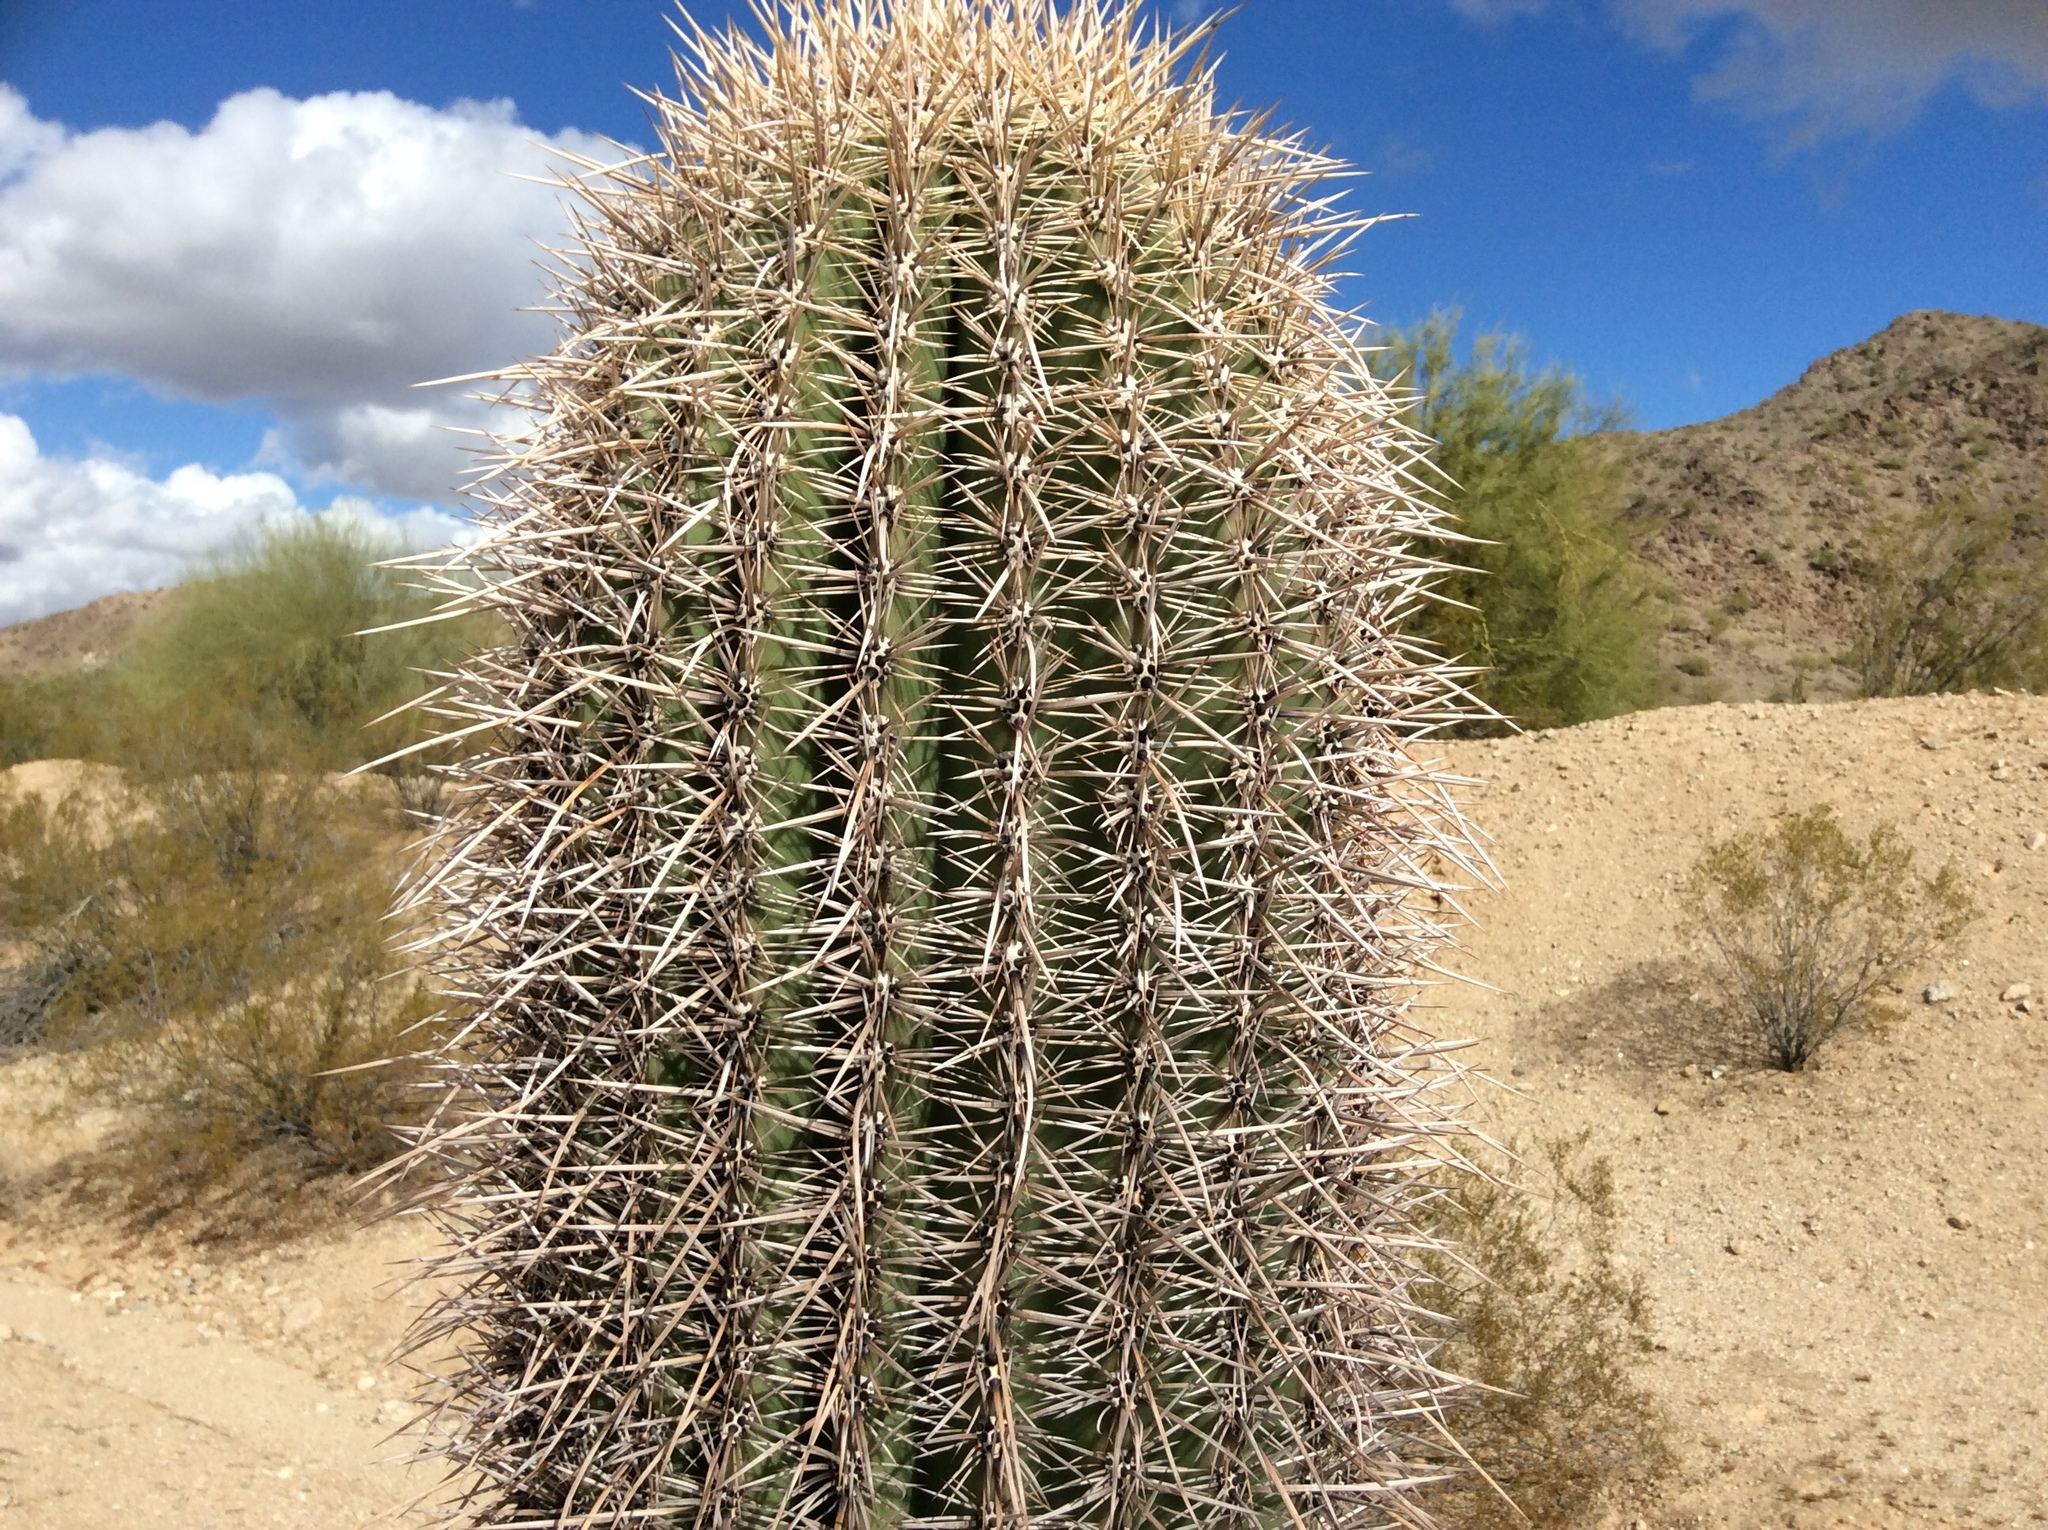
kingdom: Plantae
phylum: Tracheophyta
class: Magnoliopsida
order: Caryophyllales
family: Cactaceae
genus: Carnegiea
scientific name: Carnegiea gigantea
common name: Saguaro
